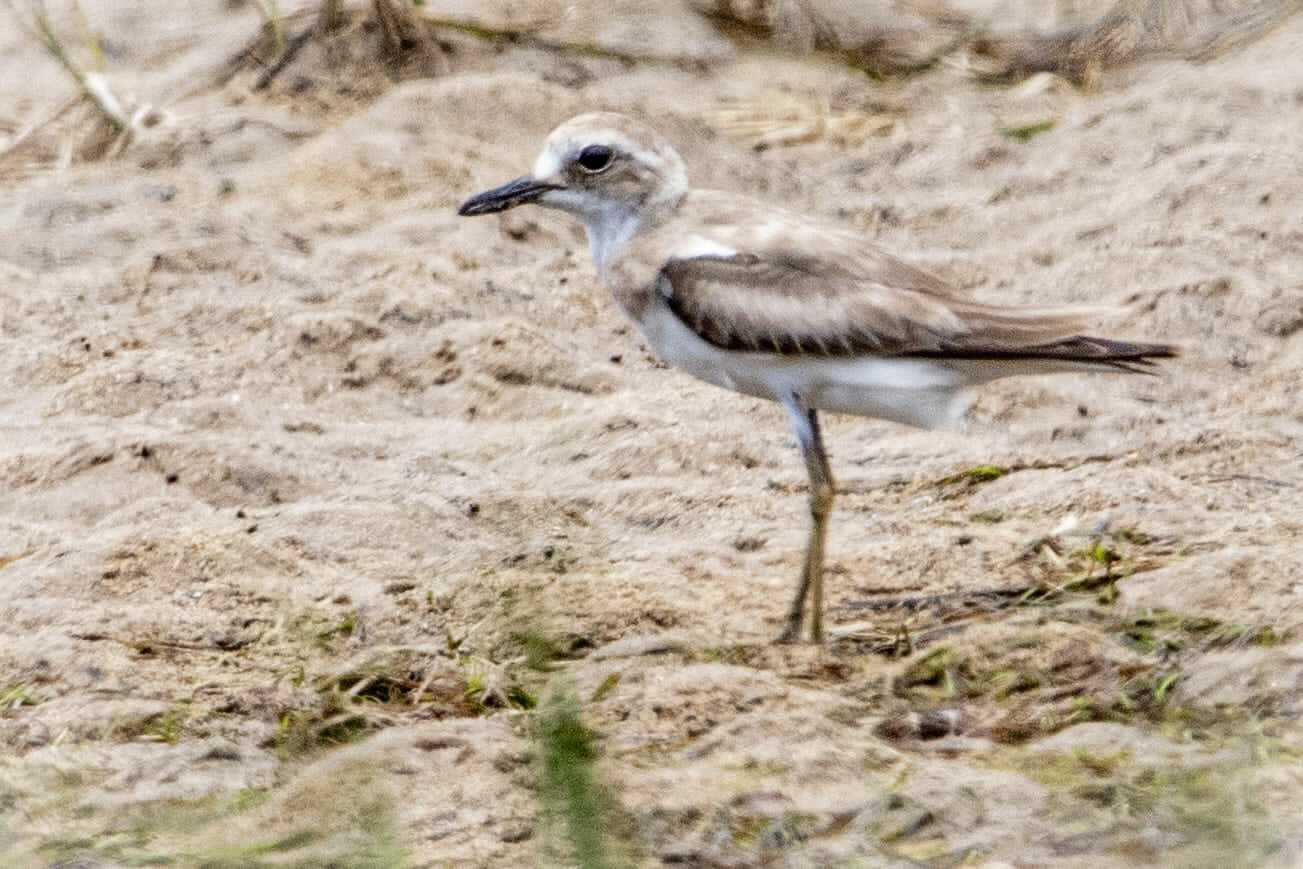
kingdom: Animalia
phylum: Chordata
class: Aves
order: Charadriiformes
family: Charadriidae
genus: Charadrius
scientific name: Charadrius leschenaultii
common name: Greater sand plover
